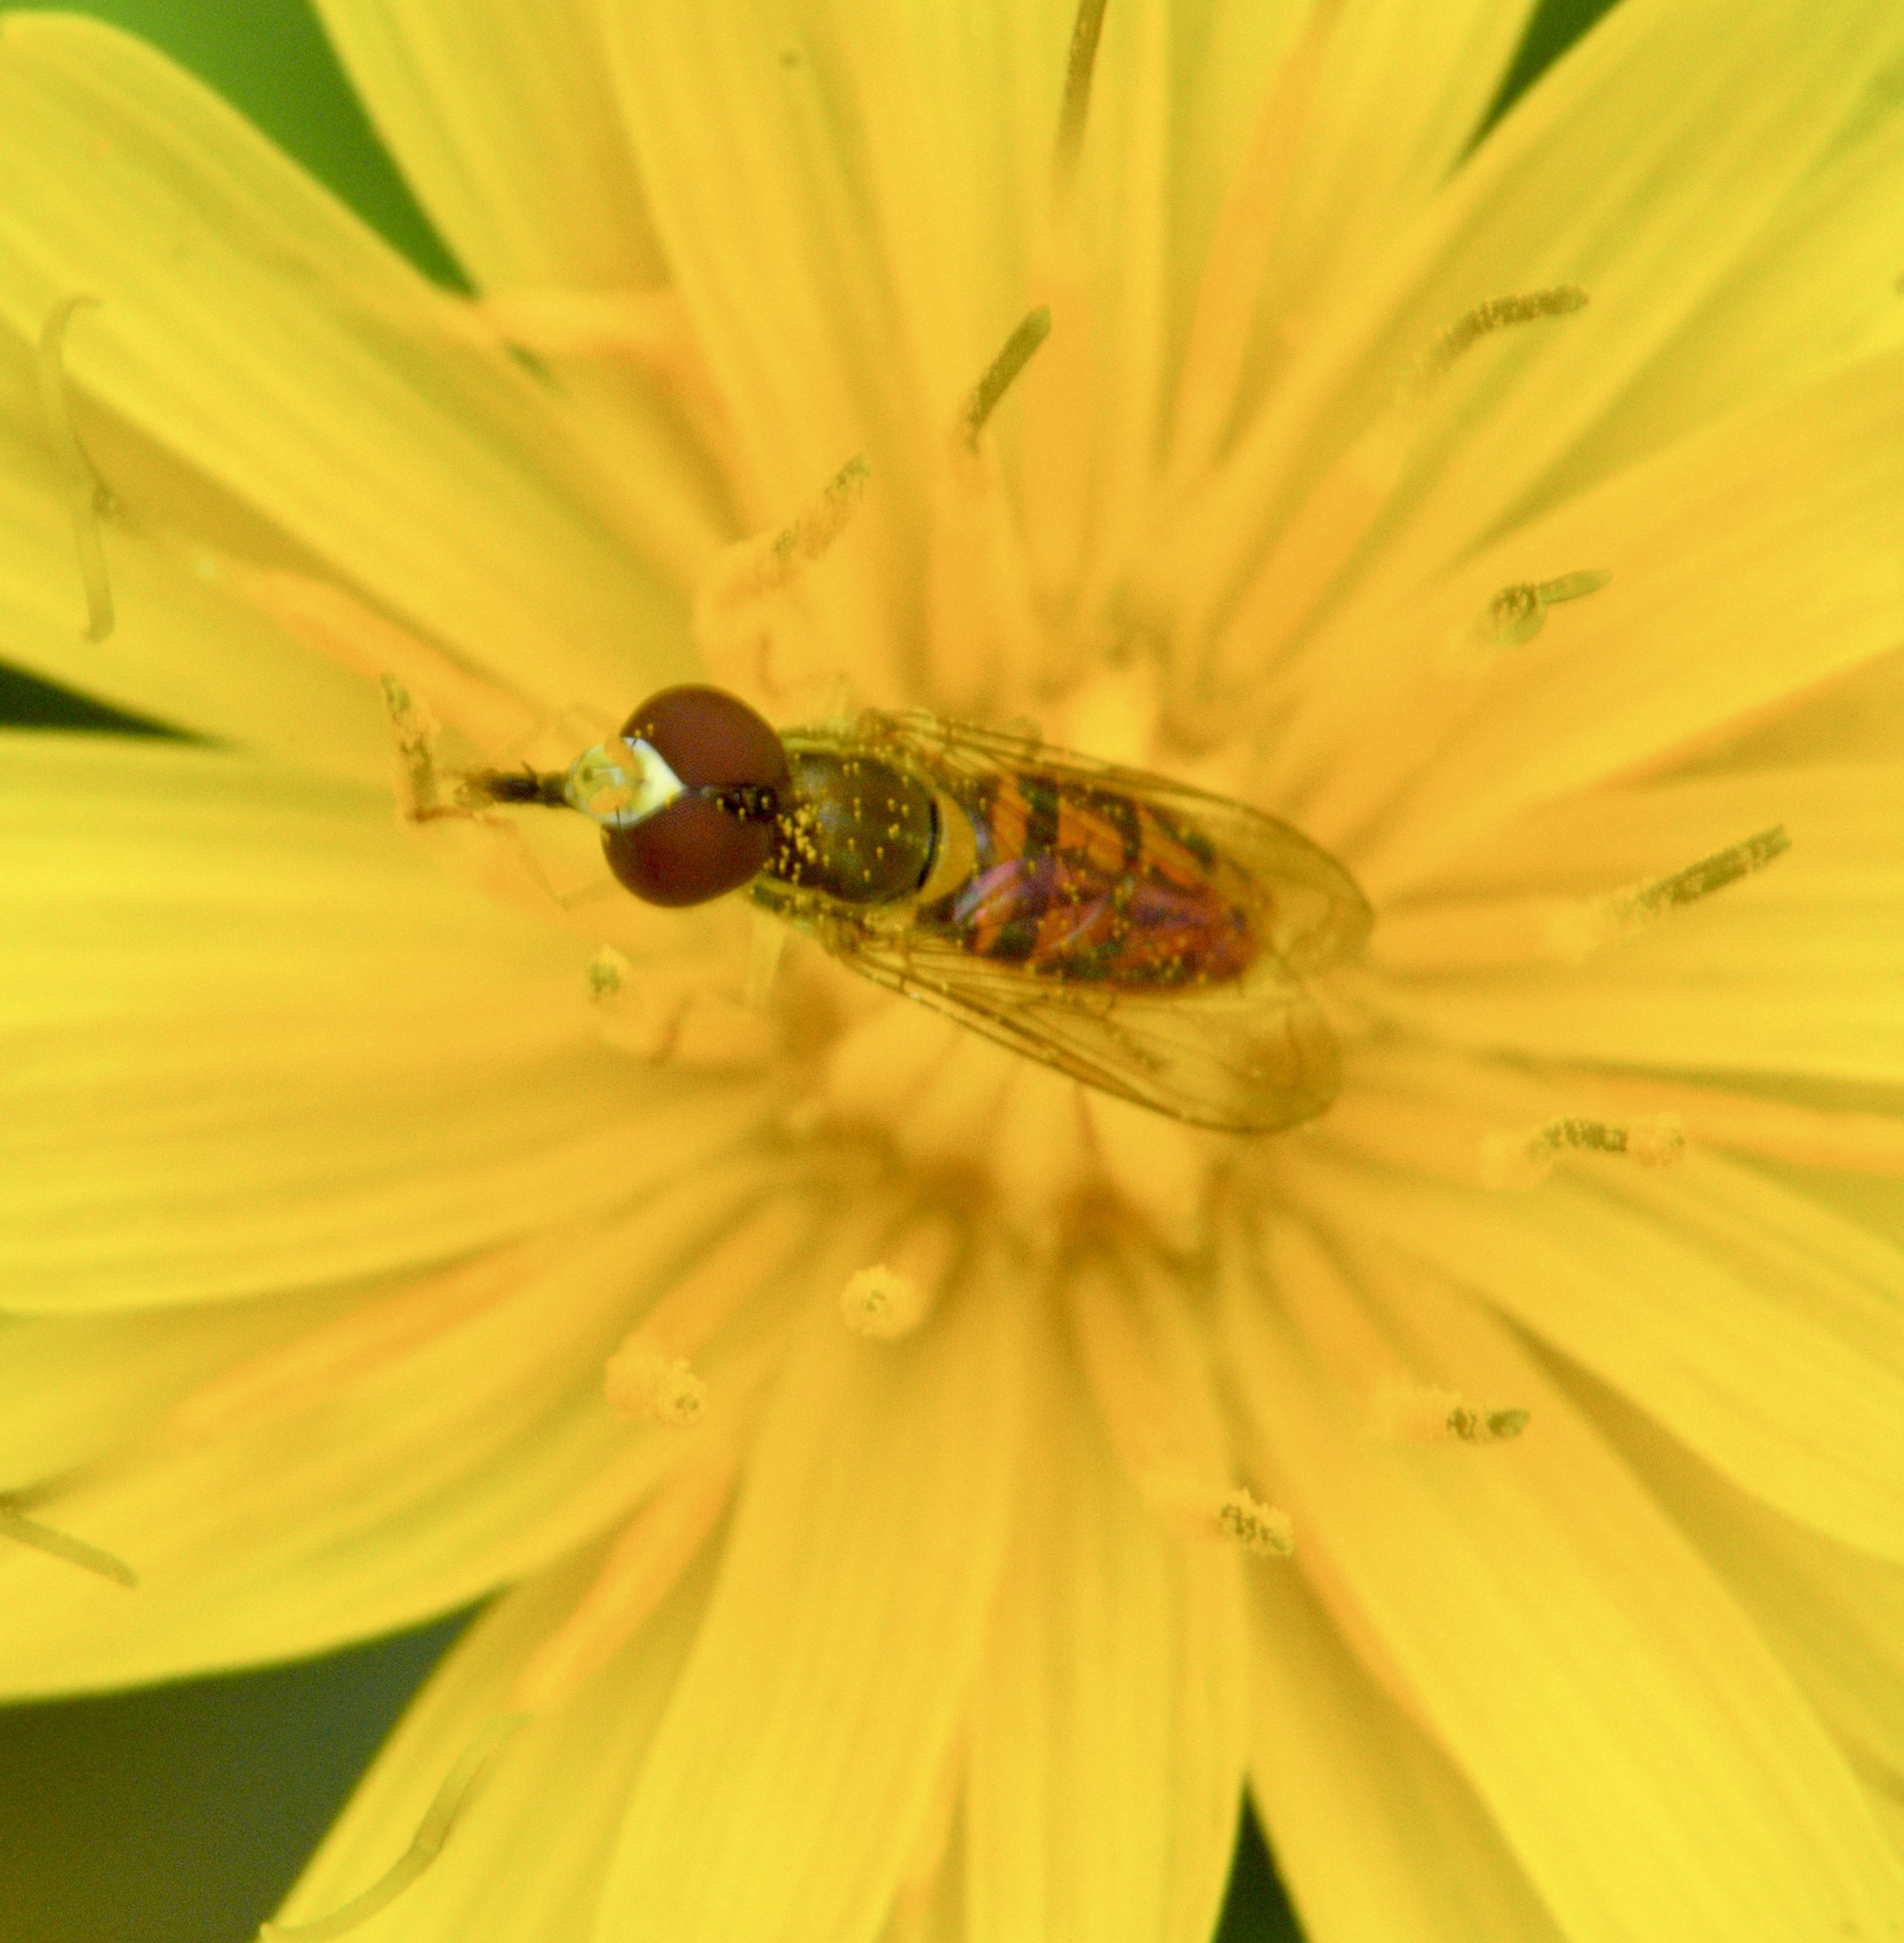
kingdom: Animalia
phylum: Arthropoda
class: Insecta
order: Diptera
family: Syrphidae
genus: Toxomerus
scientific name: Toxomerus marginatus
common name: Syrphid fly
